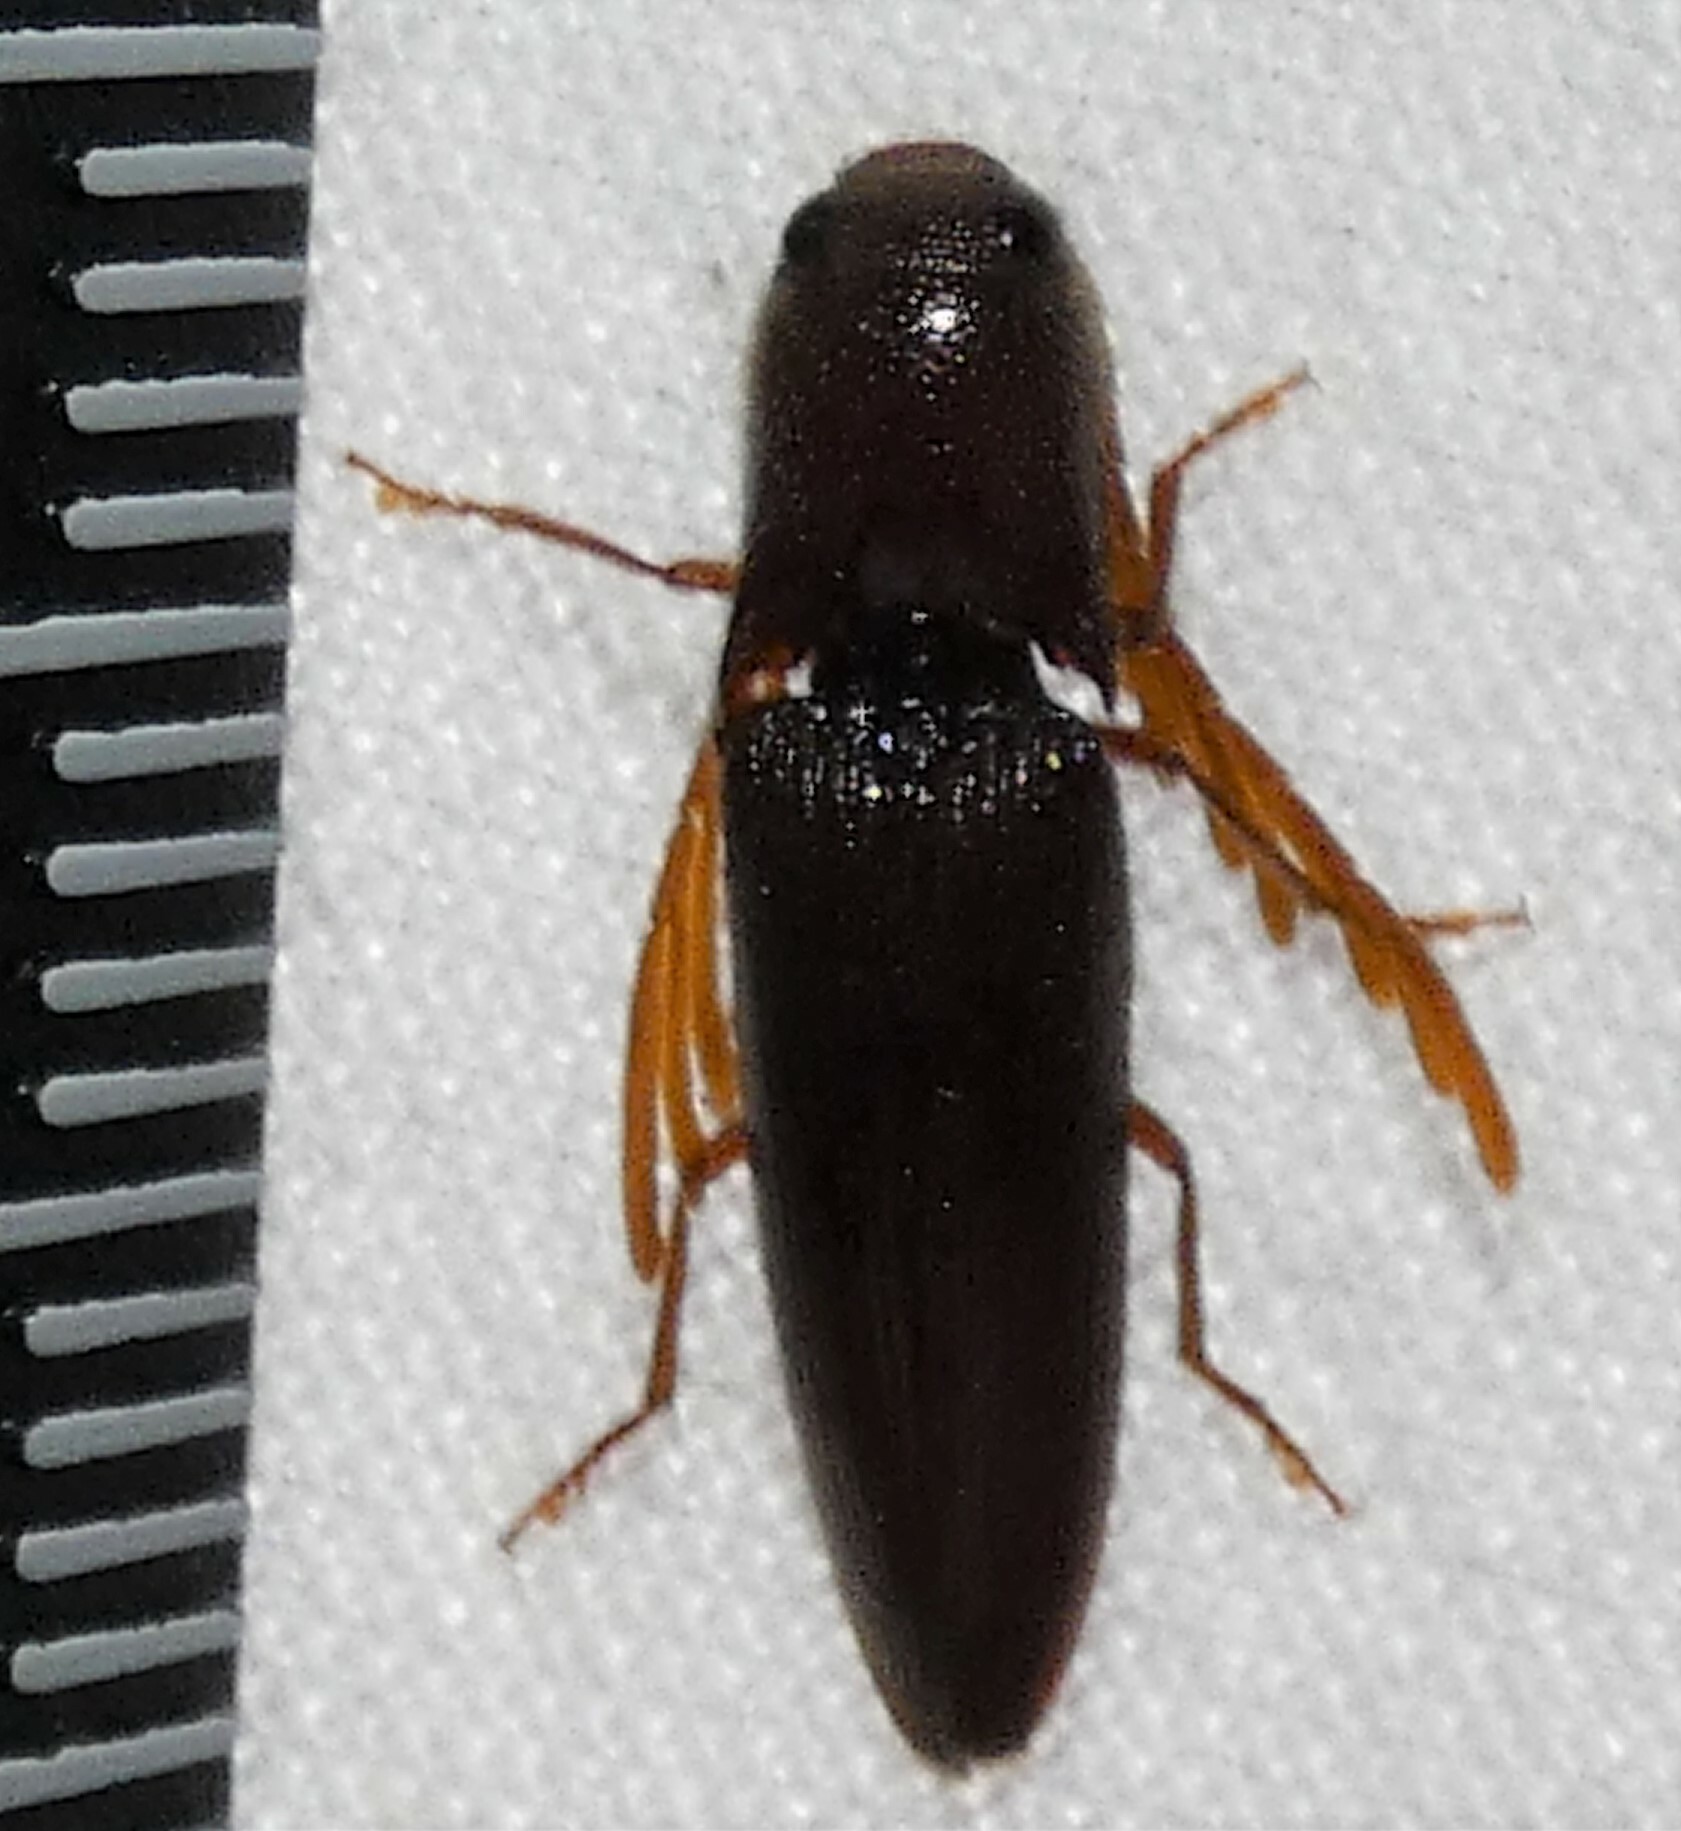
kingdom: Animalia
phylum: Arthropoda
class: Insecta
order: Coleoptera
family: Elateridae
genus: Dicrepidius
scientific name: Dicrepidius palmatus
